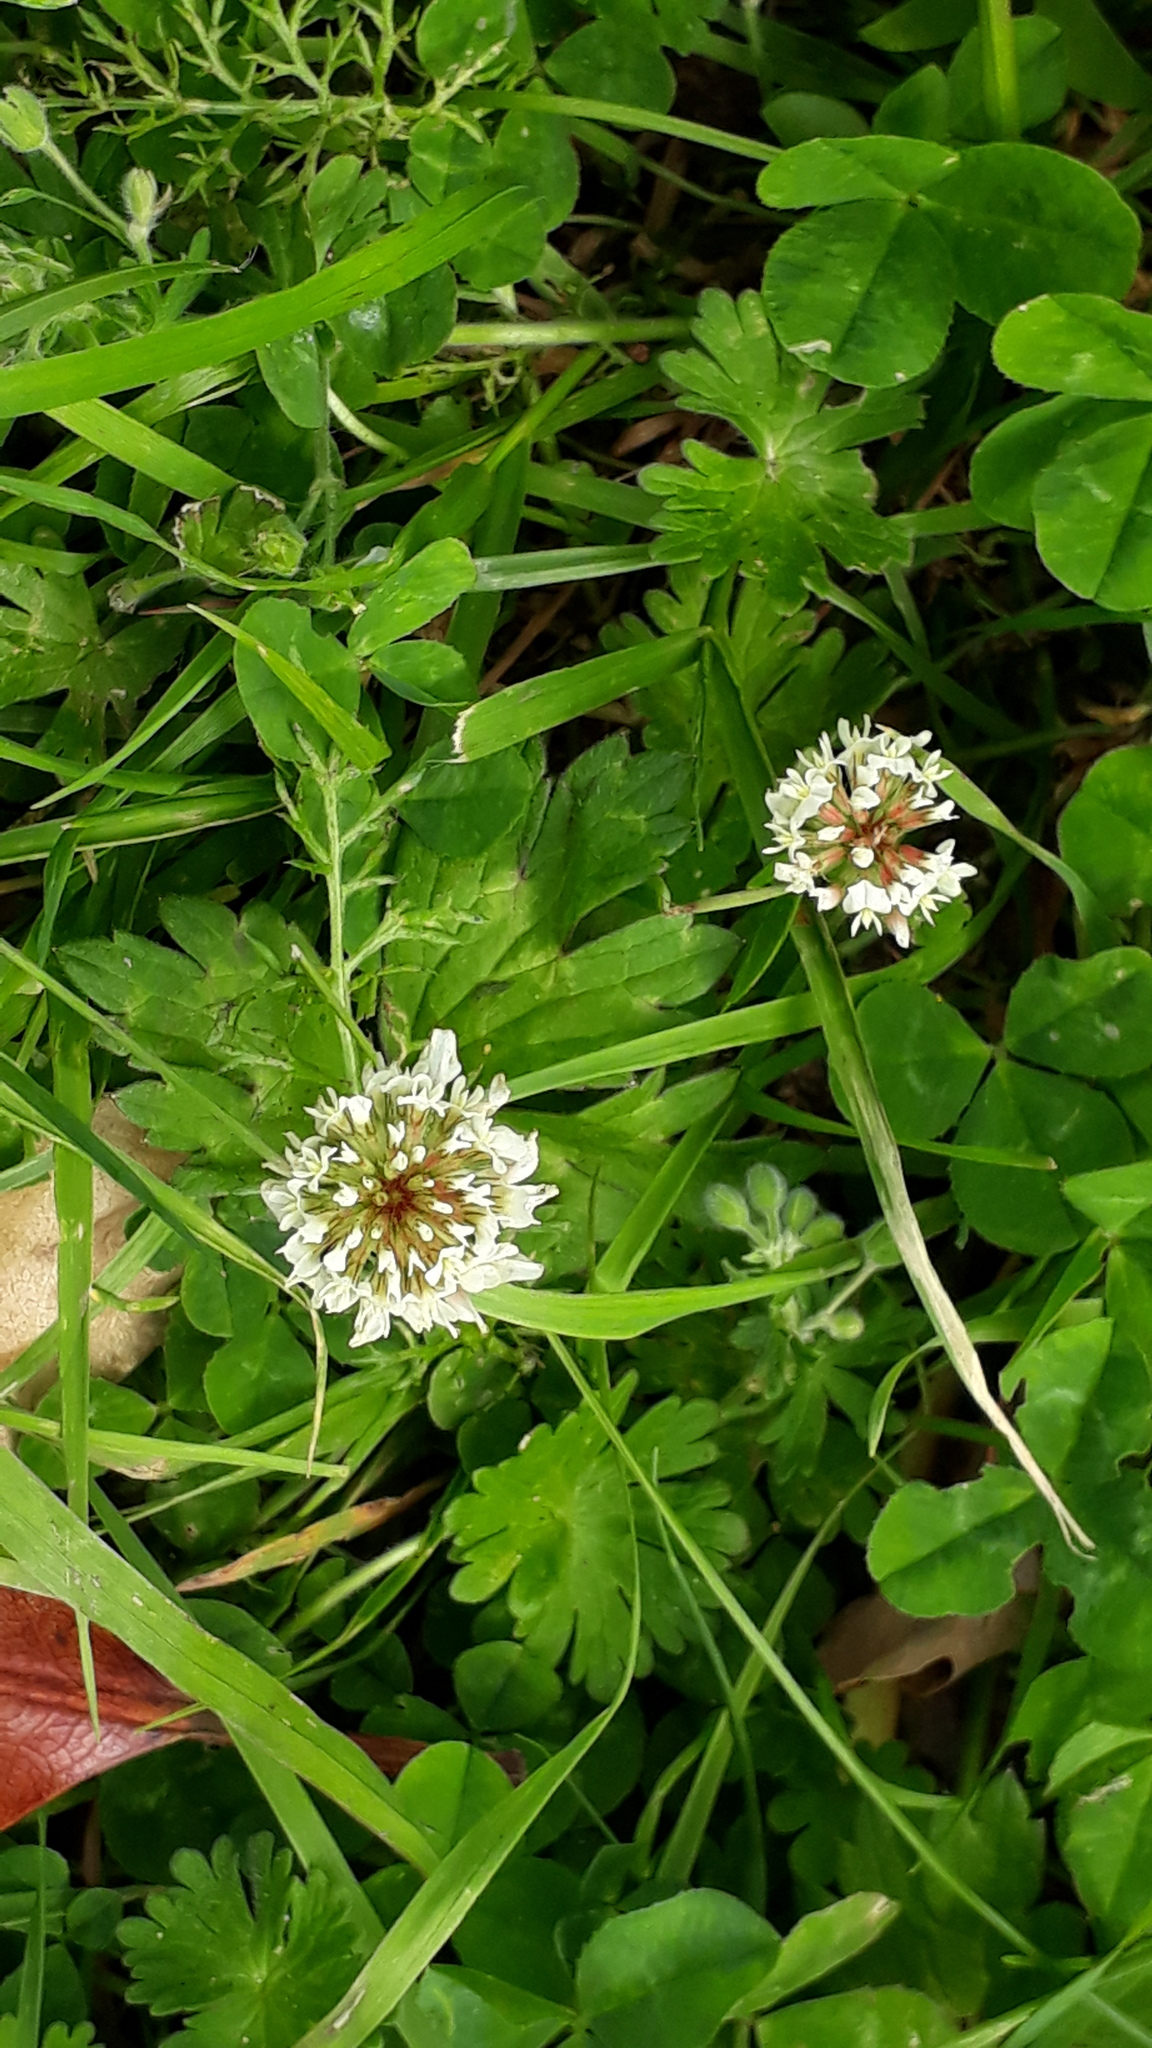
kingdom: Plantae
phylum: Tracheophyta
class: Magnoliopsida
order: Fabales
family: Fabaceae
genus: Trifolium
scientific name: Trifolium repens
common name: White clover
